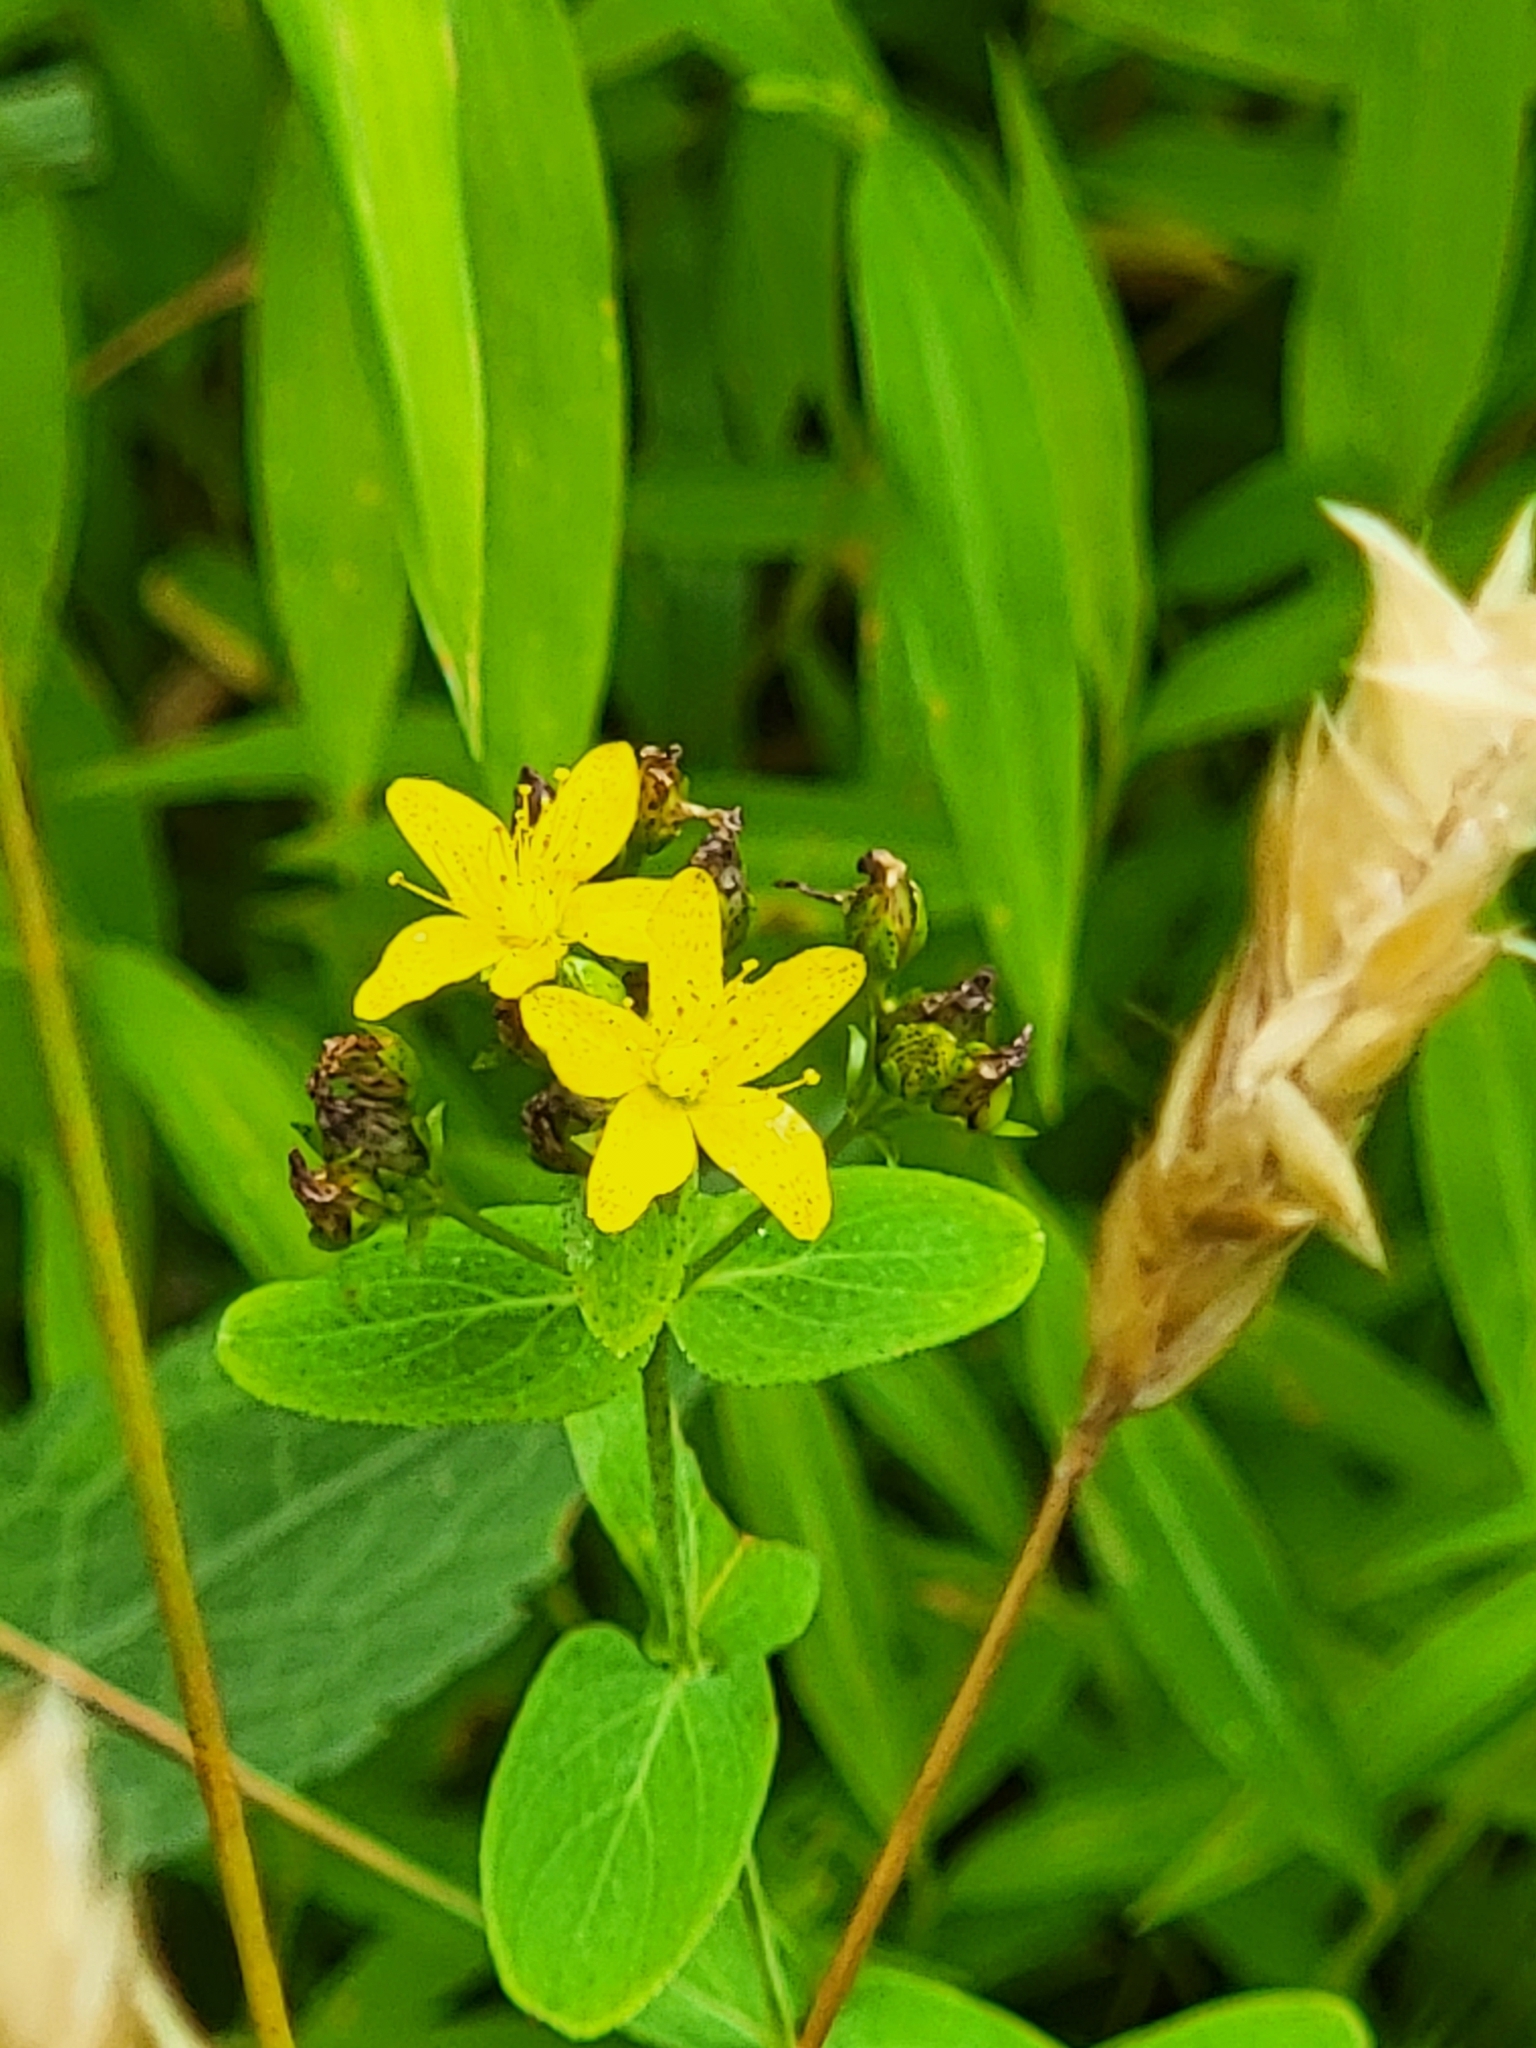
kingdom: Plantae
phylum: Tracheophyta
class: Magnoliopsida
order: Malpighiales
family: Hypericaceae
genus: Hypericum
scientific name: Hypericum punctatum
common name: Spotted st. john's-wort
